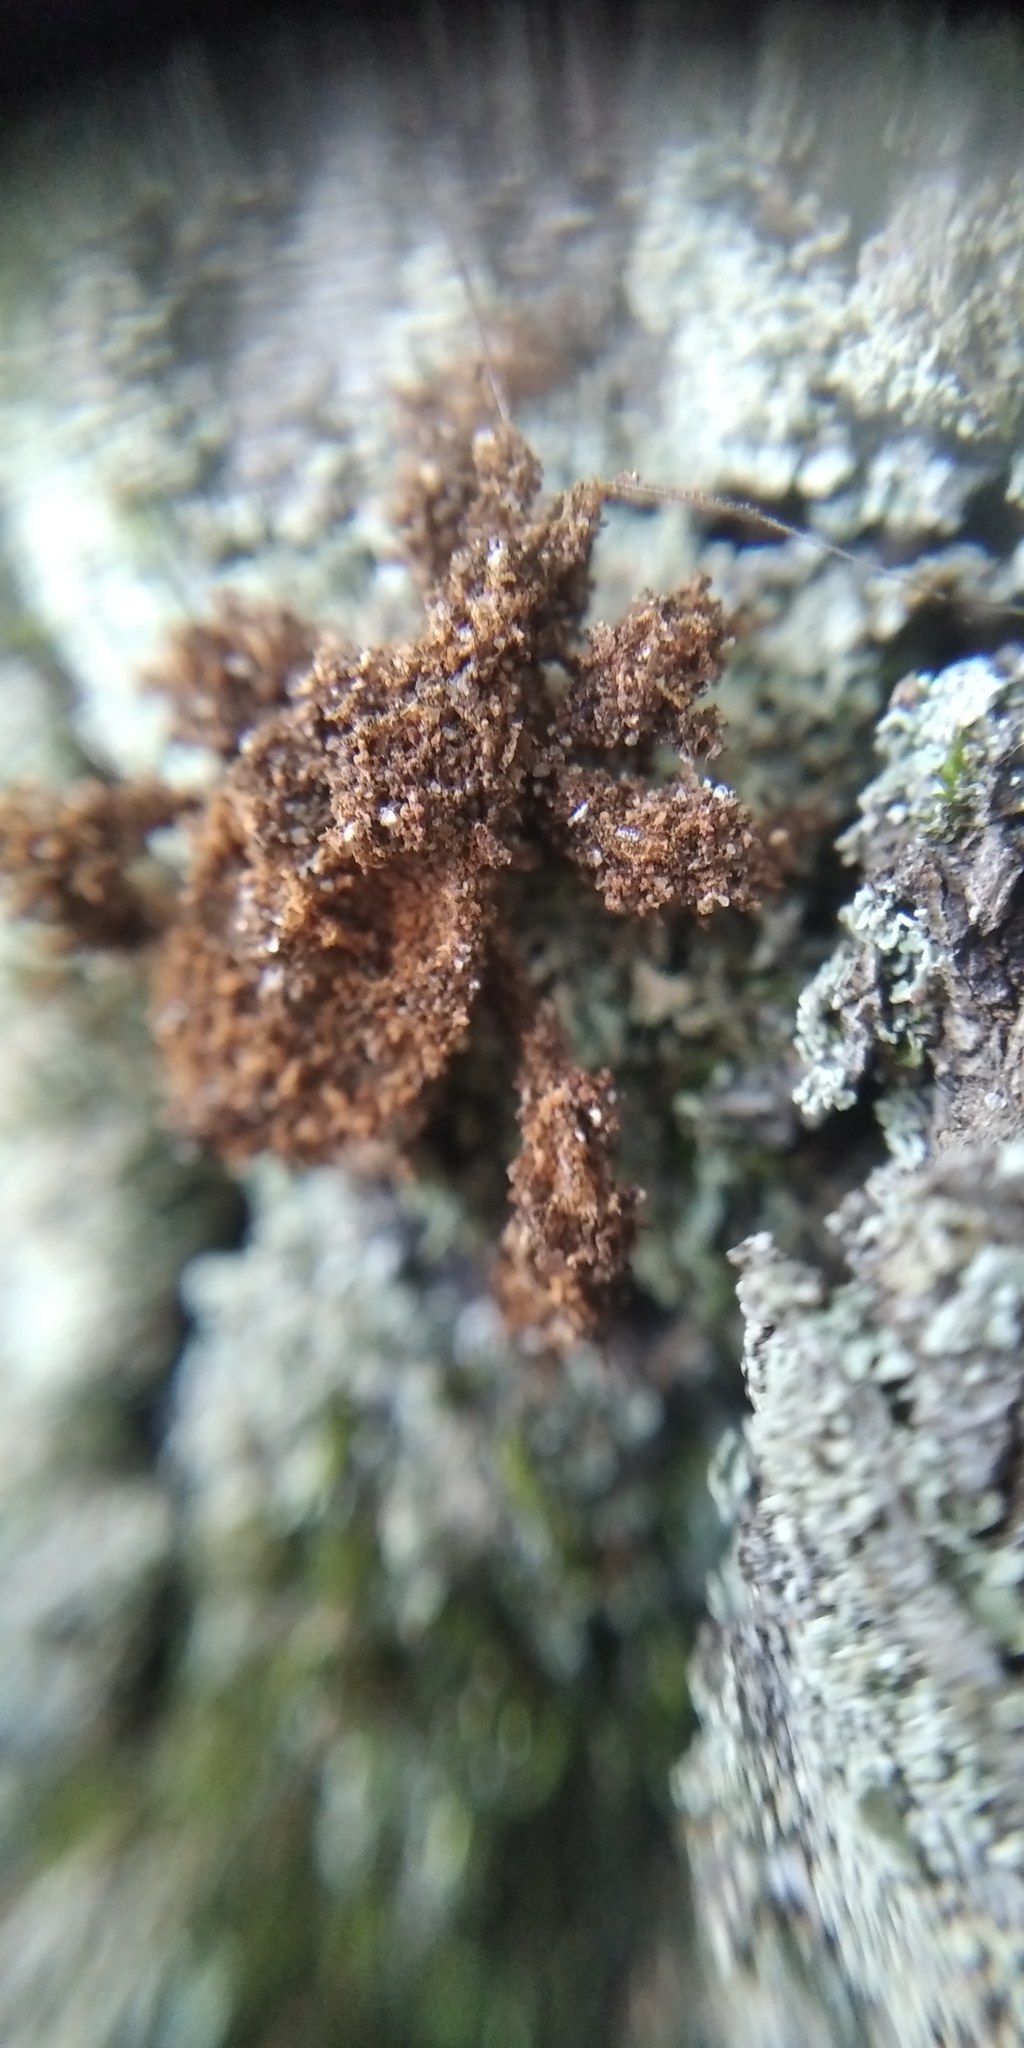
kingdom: Animalia
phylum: Arthropoda
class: Insecta
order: Hemiptera
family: Reduviidae
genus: Reduvius
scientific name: Reduvius personatus
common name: Masked hunter
